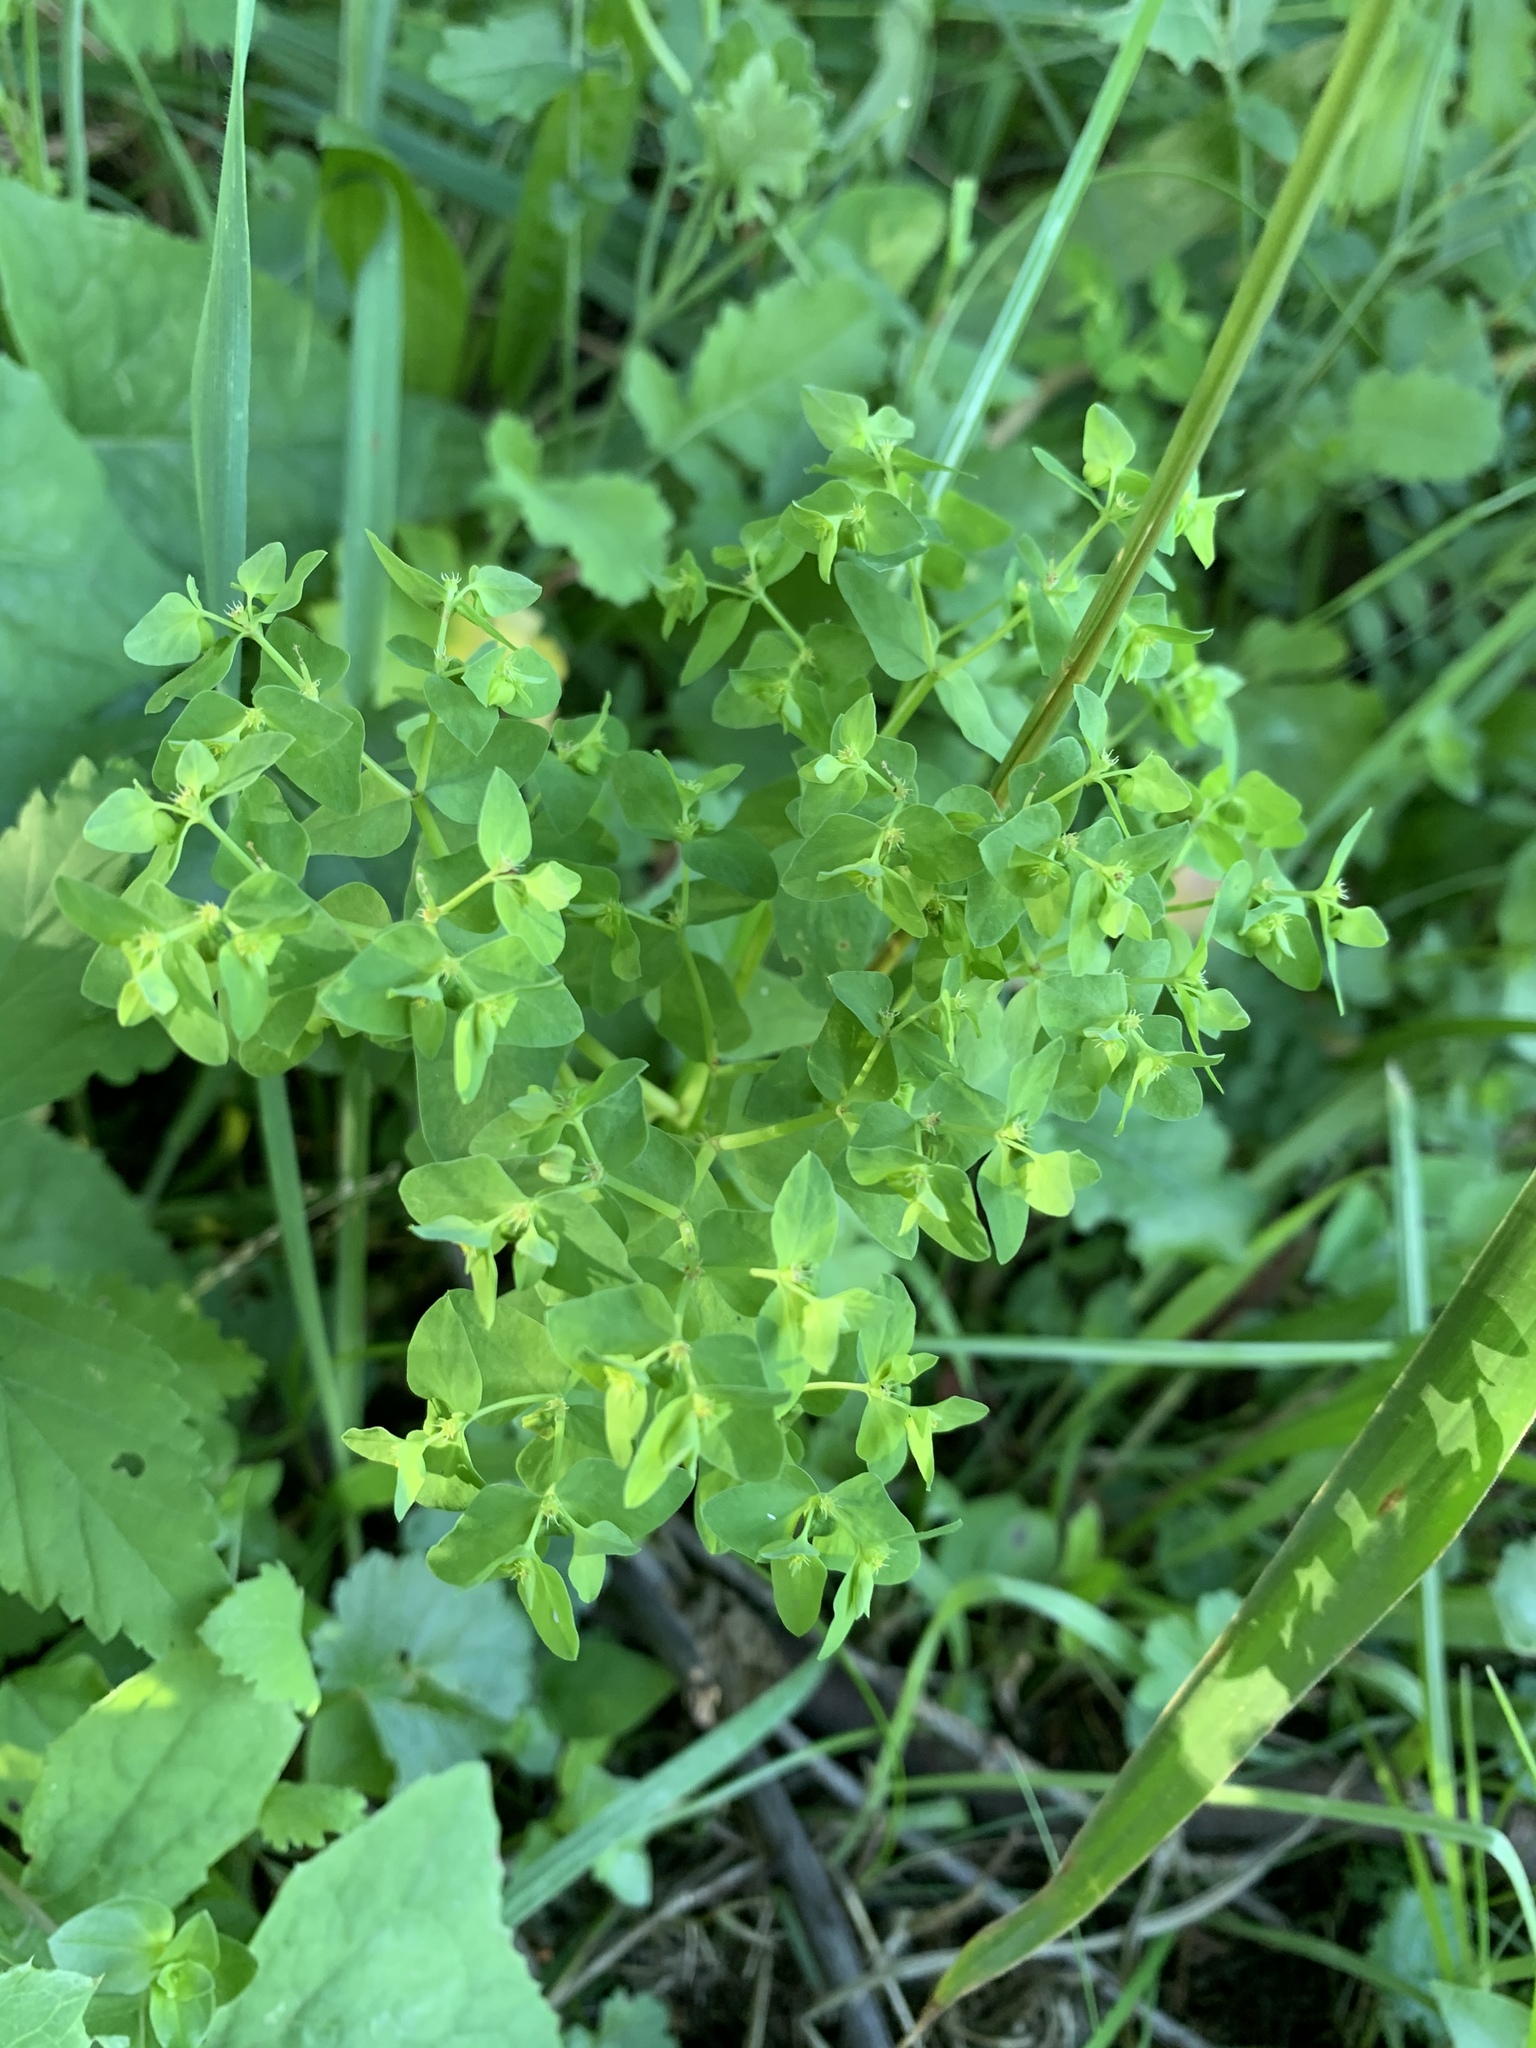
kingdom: Plantae
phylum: Tracheophyta
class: Magnoliopsida
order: Malpighiales
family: Euphorbiaceae
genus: Euphorbia
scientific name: Euphorbia peplus
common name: Petty spurge
